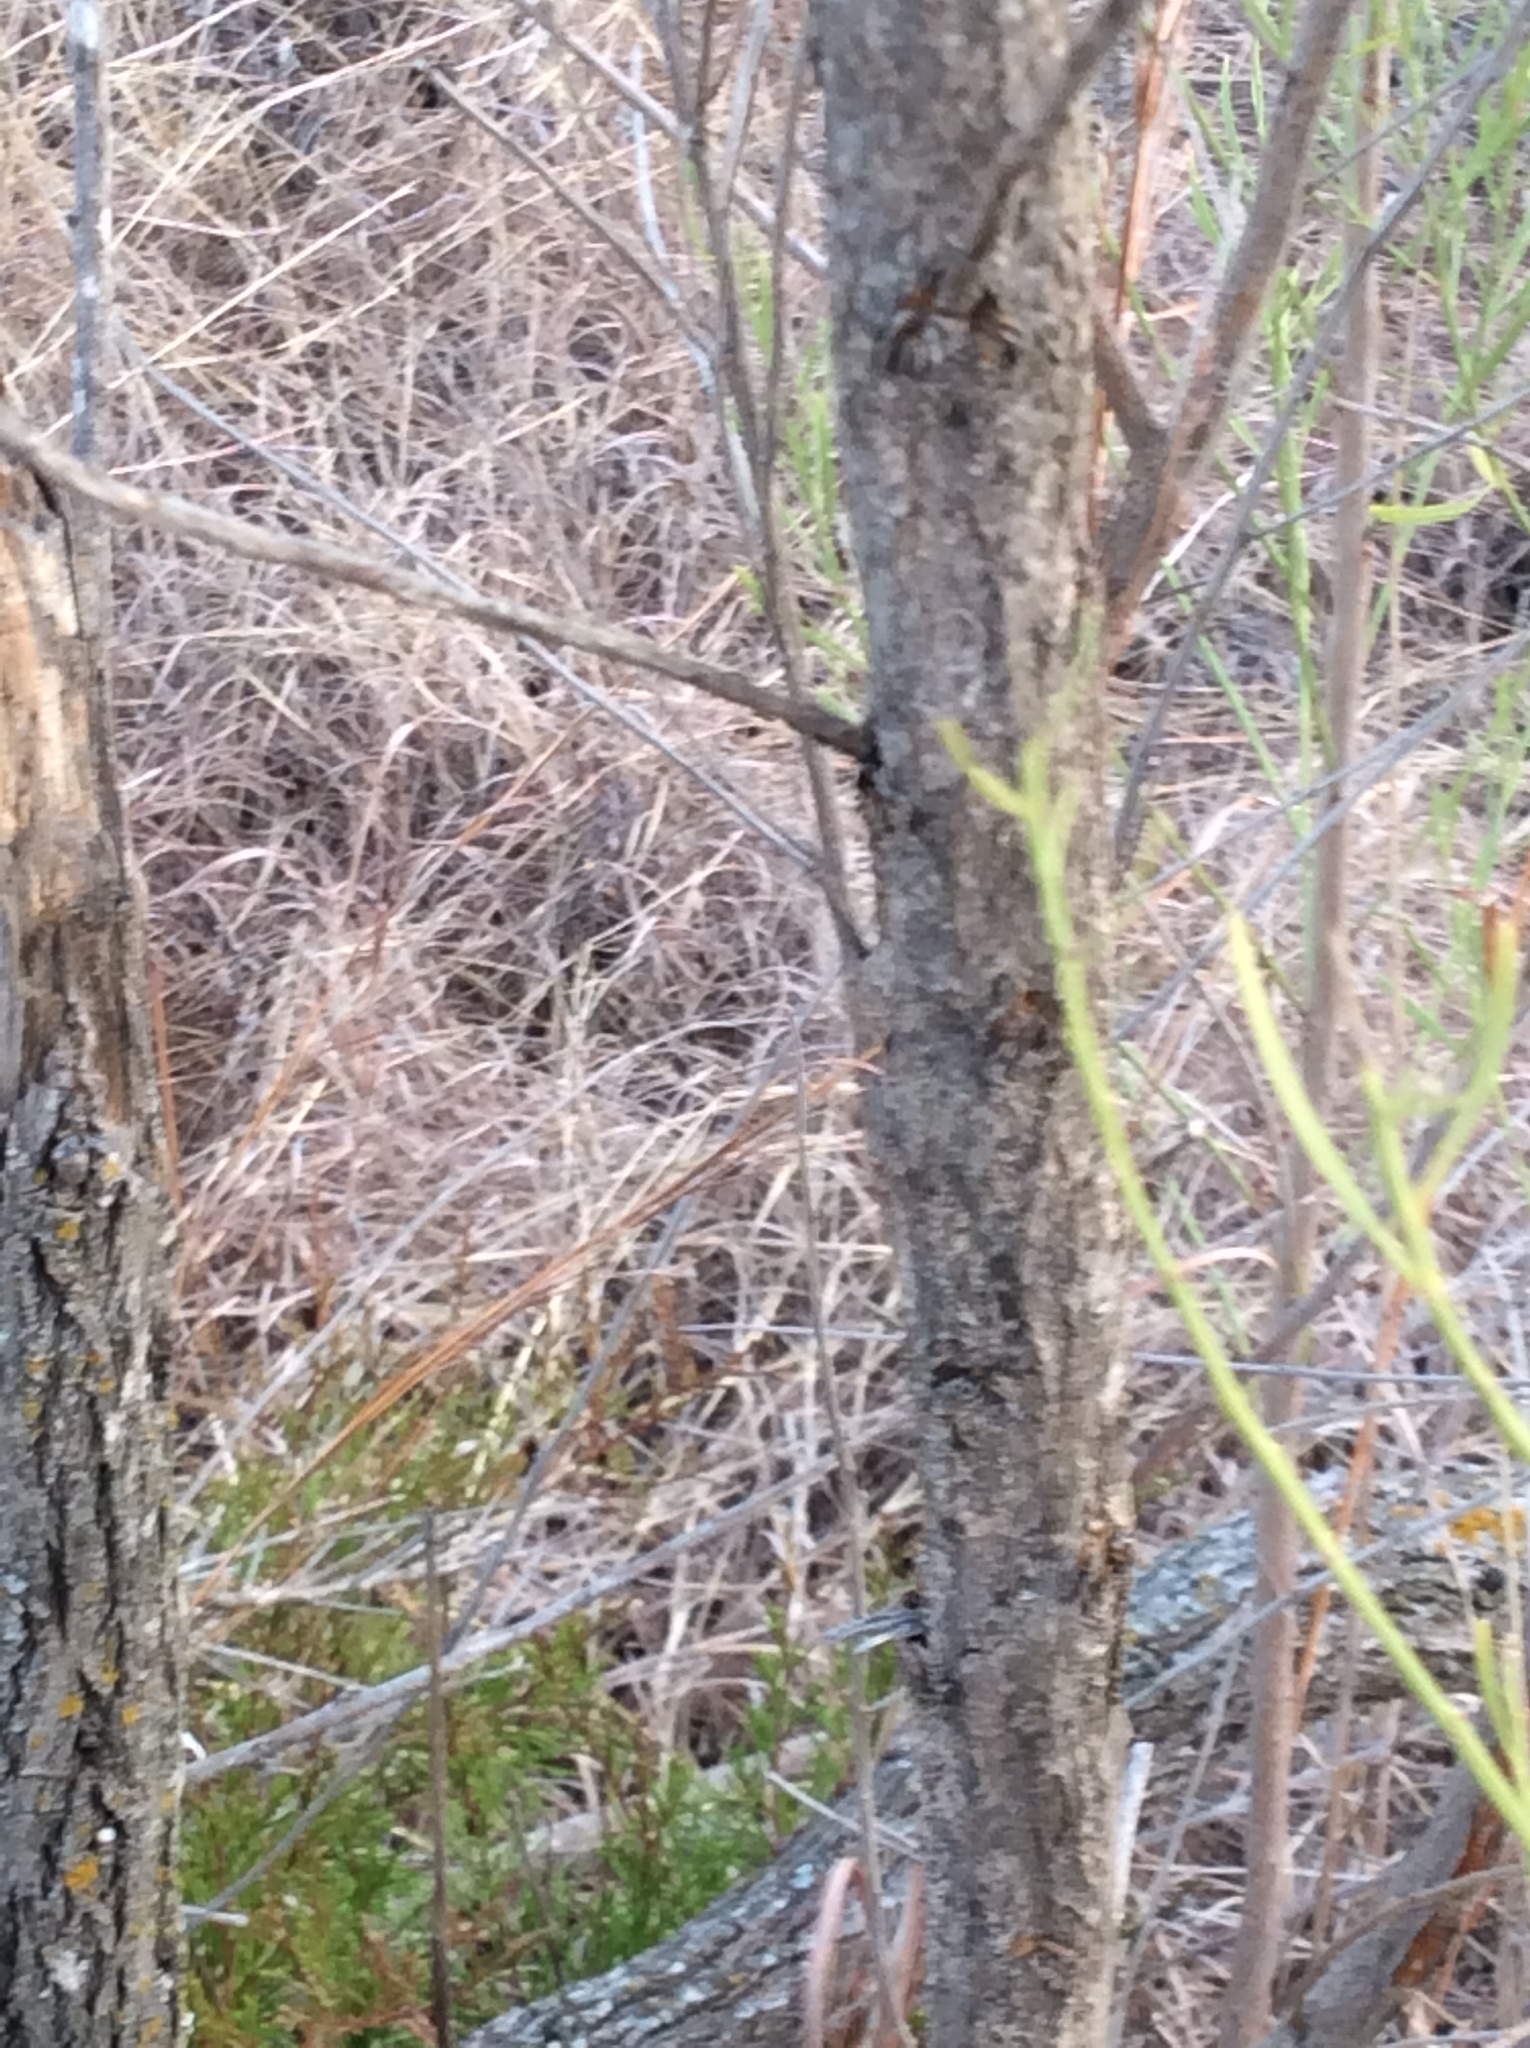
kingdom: Plantae
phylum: Tracheophyta
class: Magnoliopsida
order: Asterales
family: Asteraceae
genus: Baccharis
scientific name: Baccharis neglecta
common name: Roosevelt-weed
